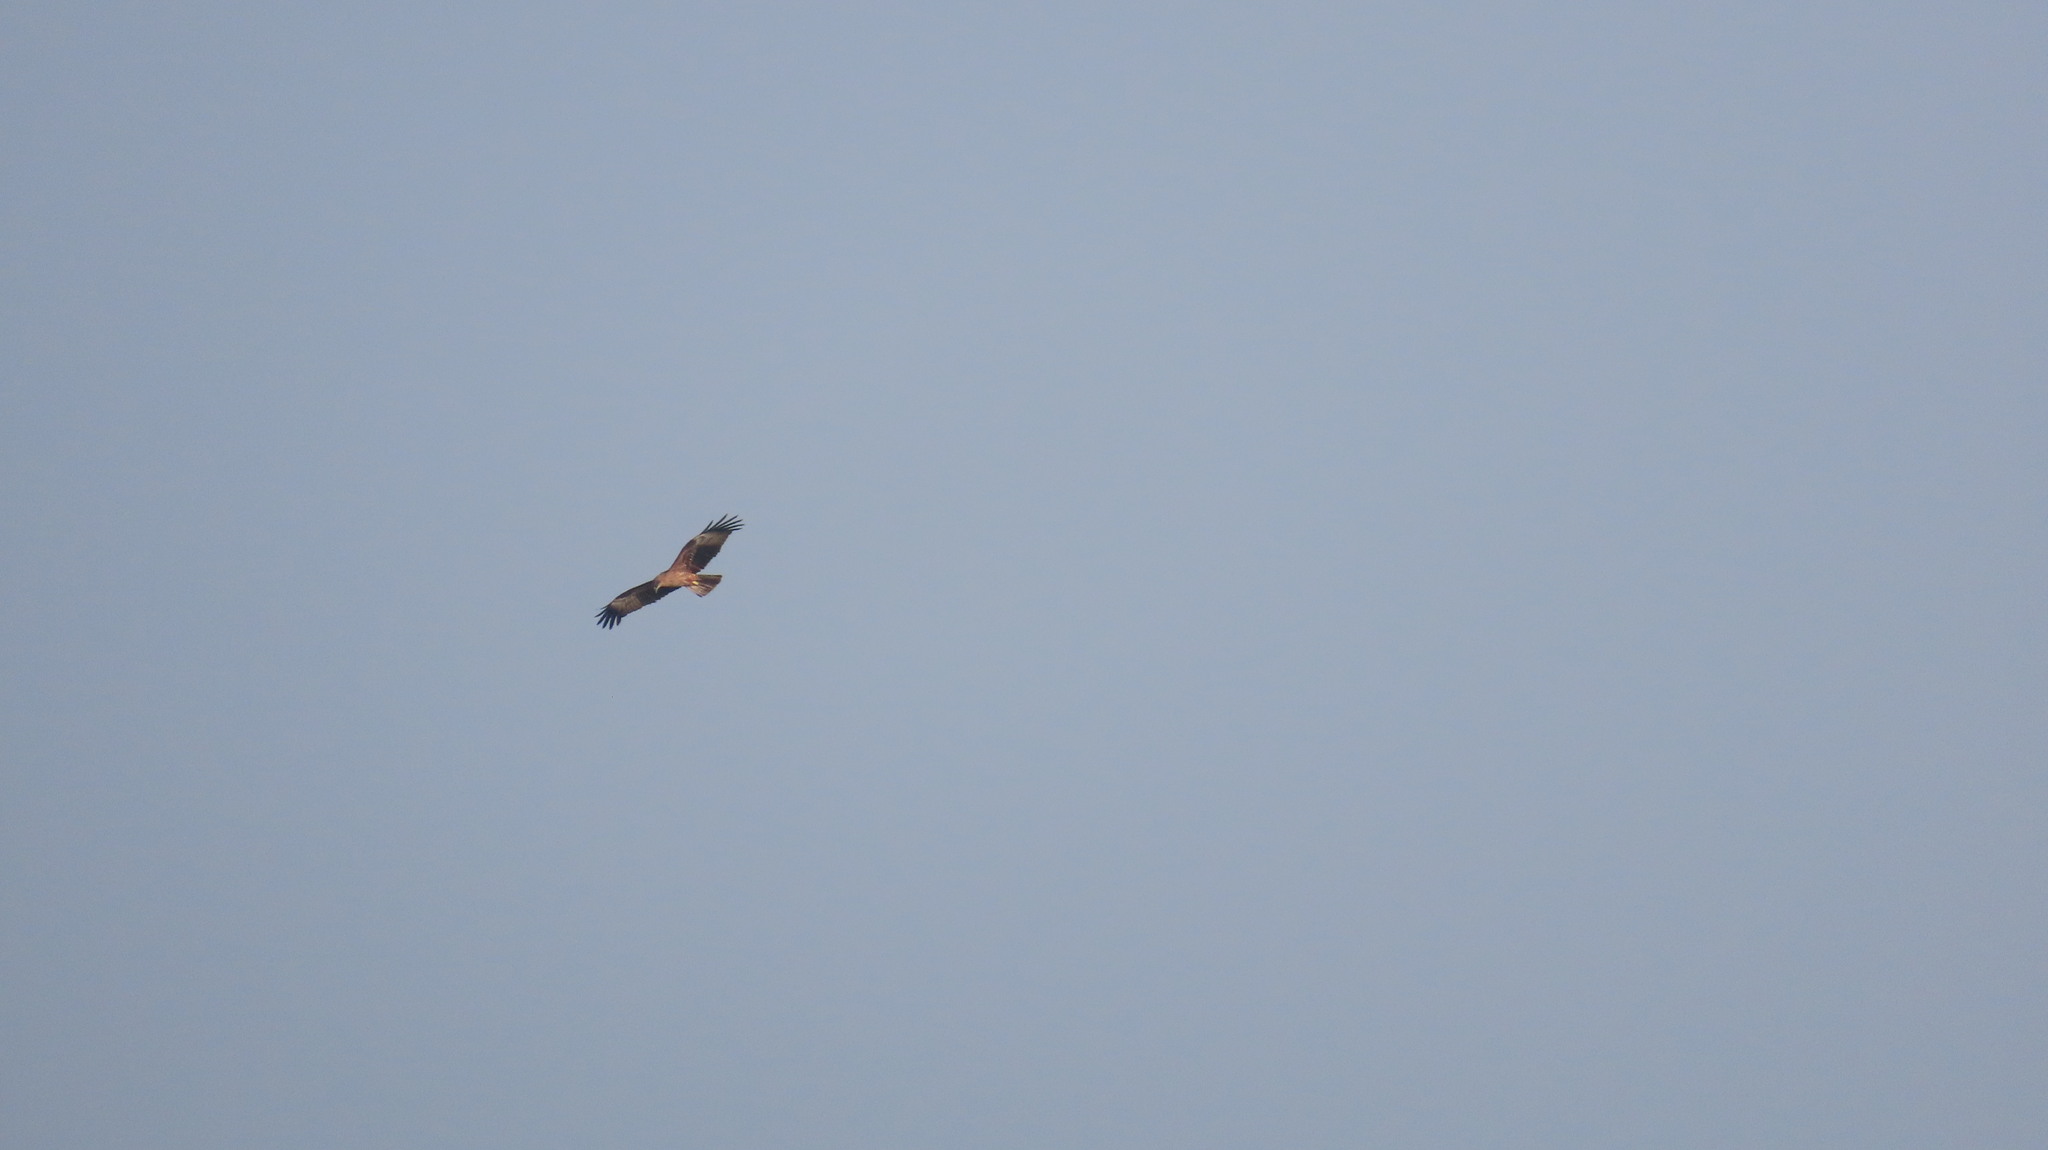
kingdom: Animalia
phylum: Chordata
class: Aves
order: Accipitriformes
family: Accipitridae
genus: Haliastur
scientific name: Haliastur indus
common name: Brahminy kite
